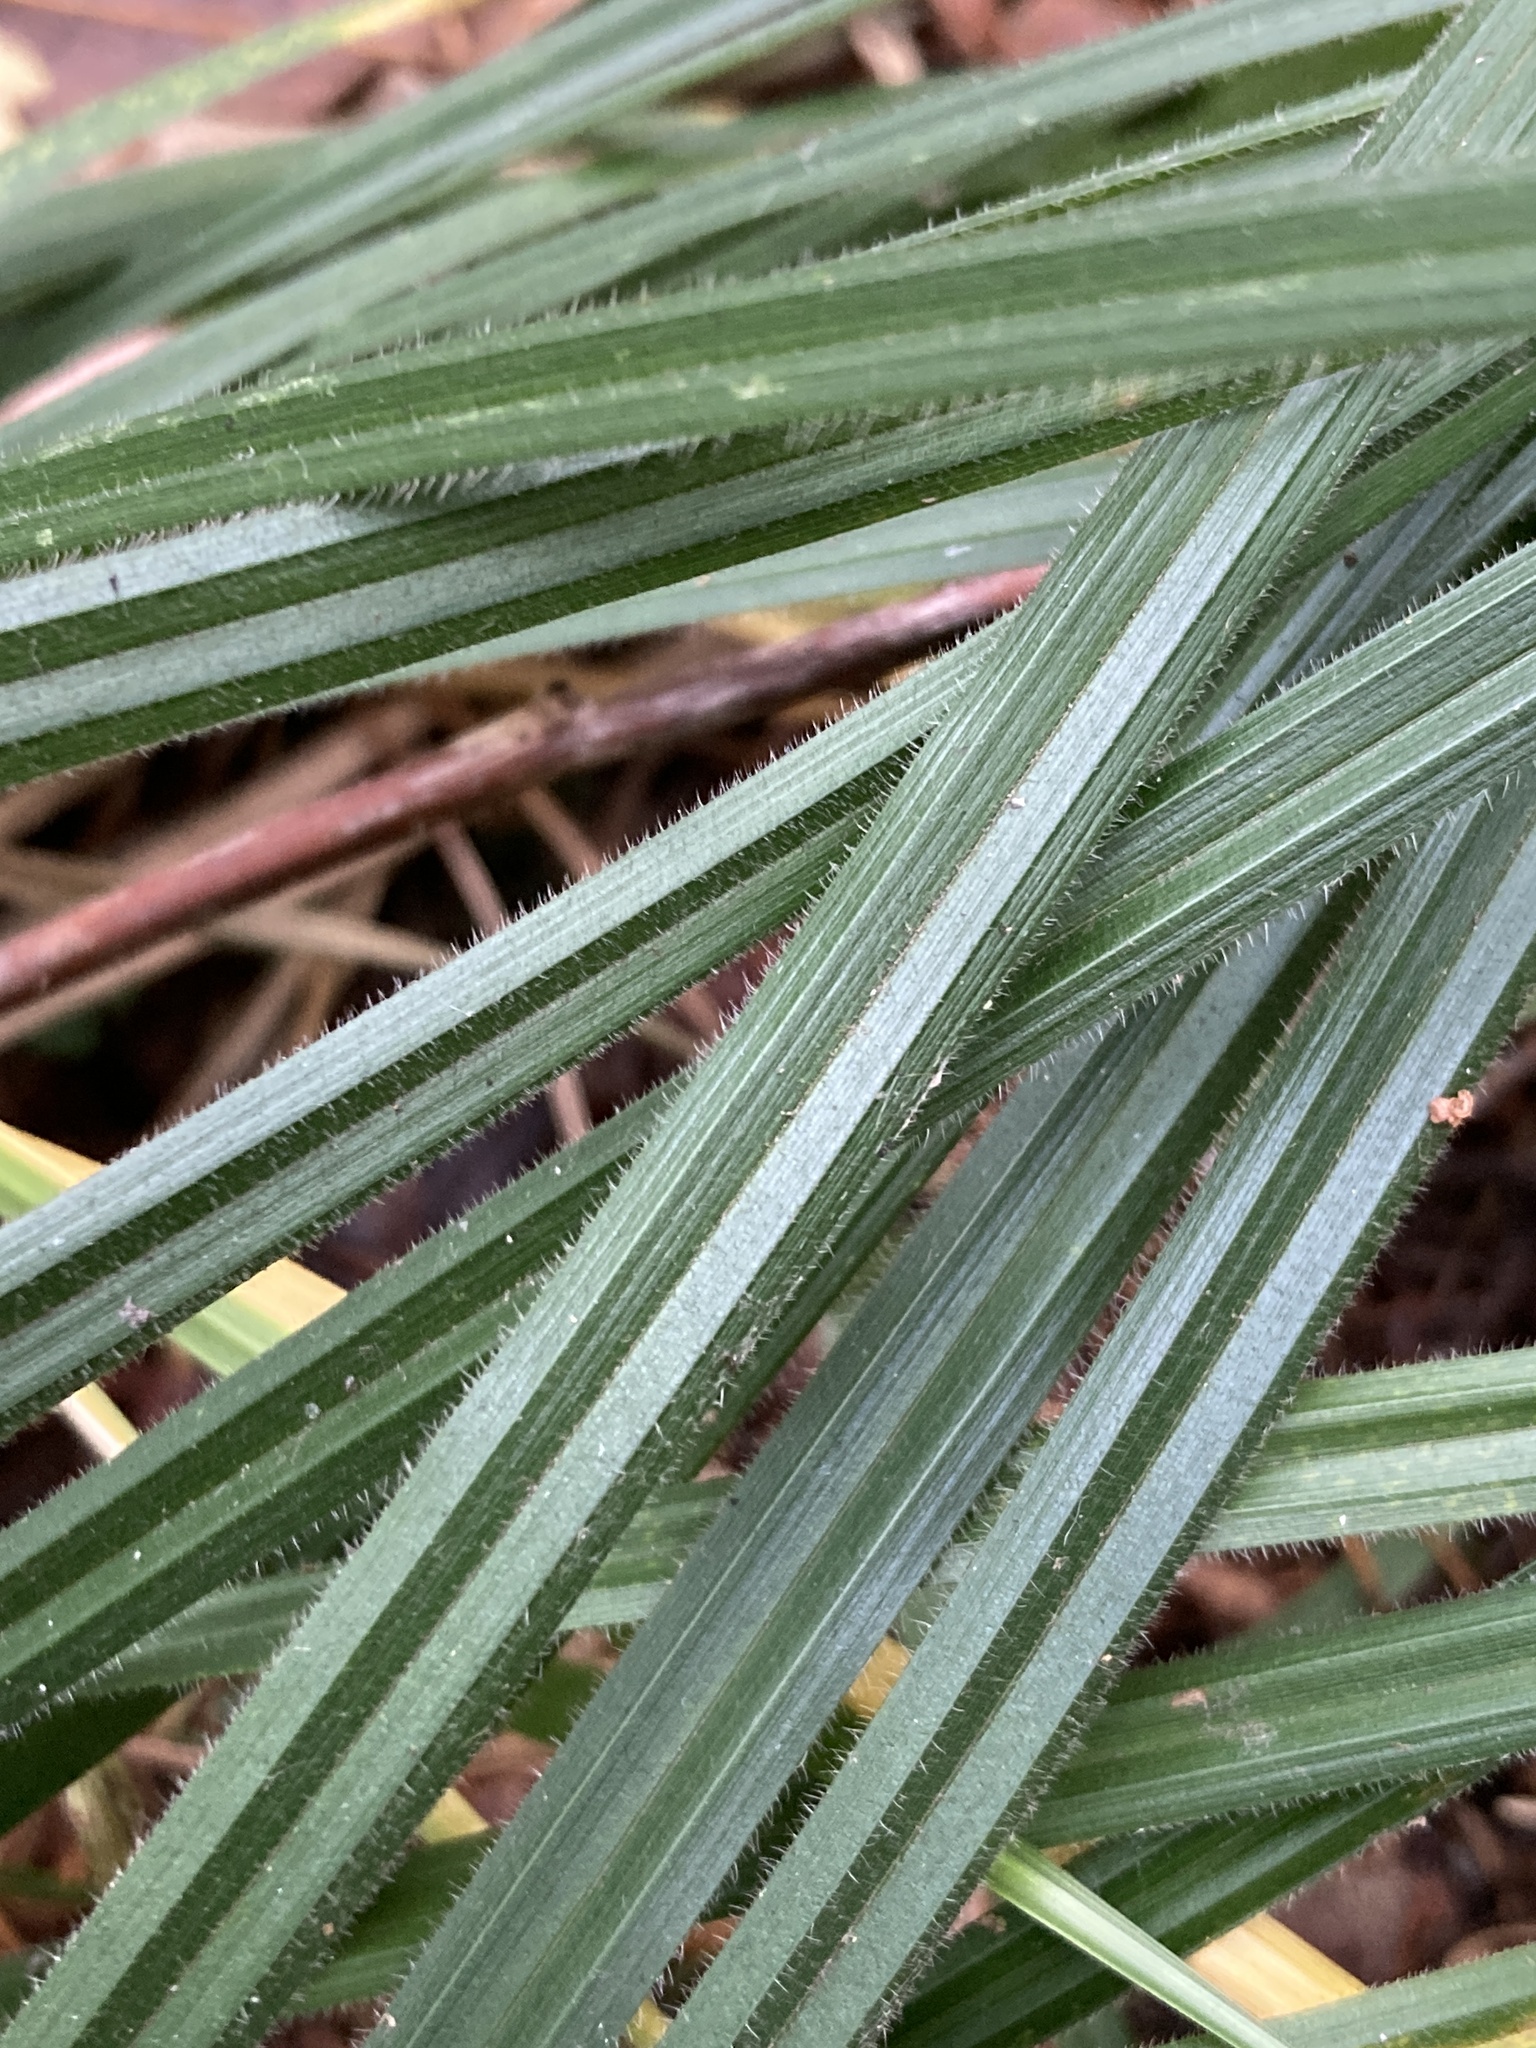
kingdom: Plantae
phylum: Tracheophyta
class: Liliopsida
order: Poales
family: Cyperaceae
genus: Carex
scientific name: Carex pilosa
